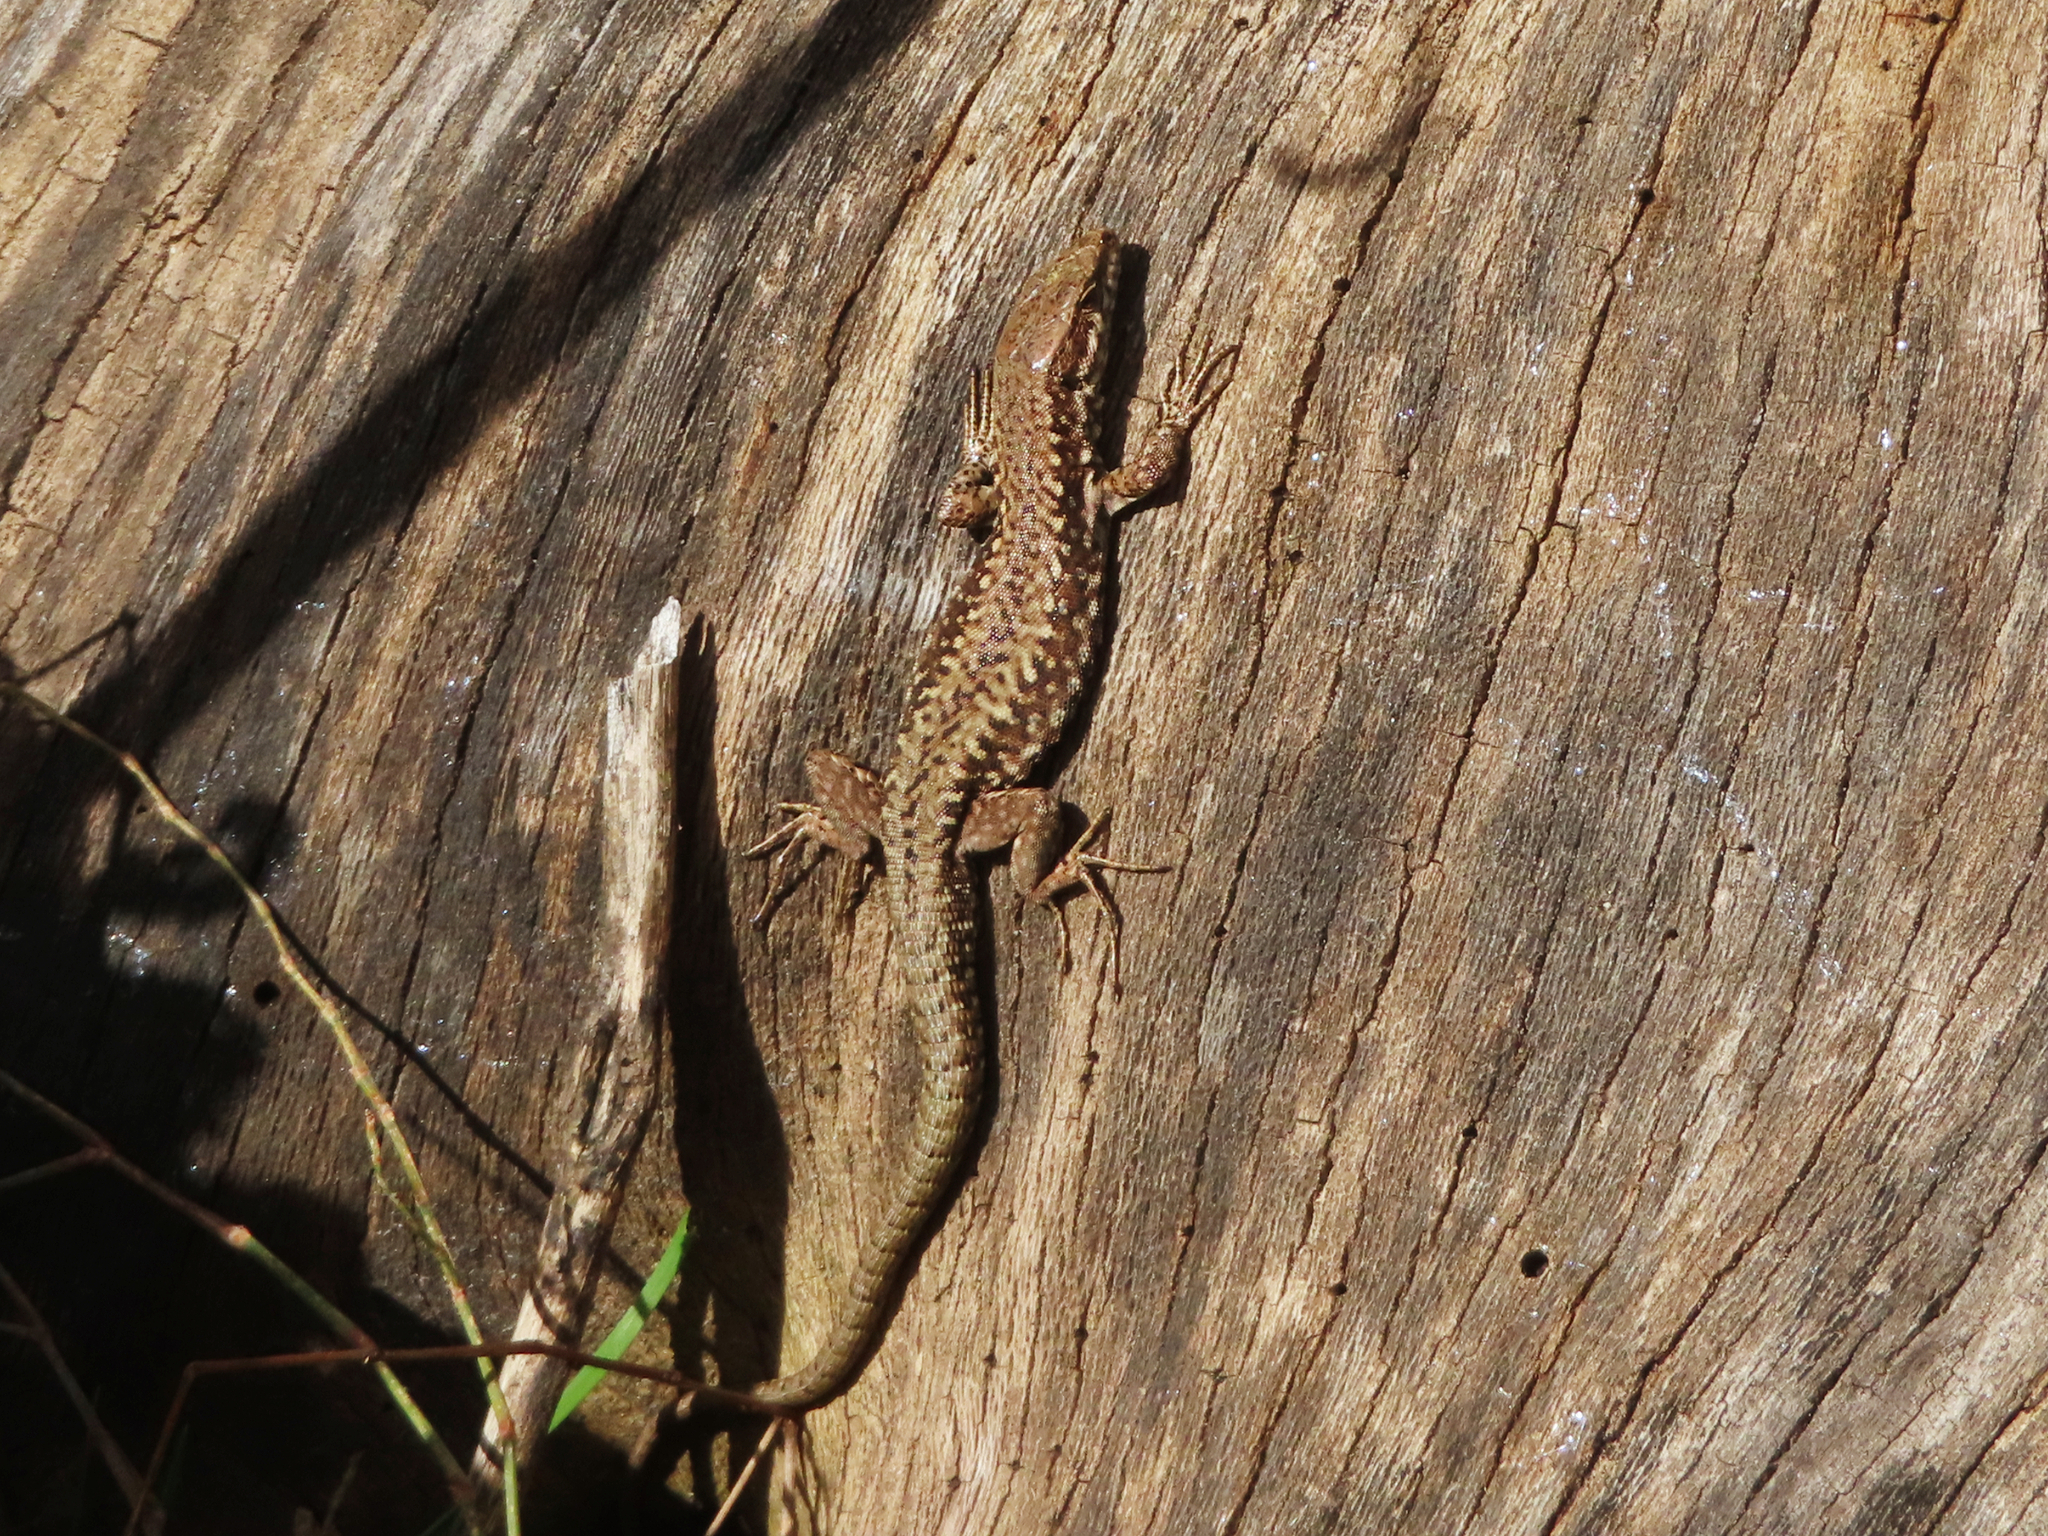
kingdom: Animalia
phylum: Chordata
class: Squamata
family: Lacertidae
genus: Podarcis
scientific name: Podarcis muralis
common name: Common wall lizard
